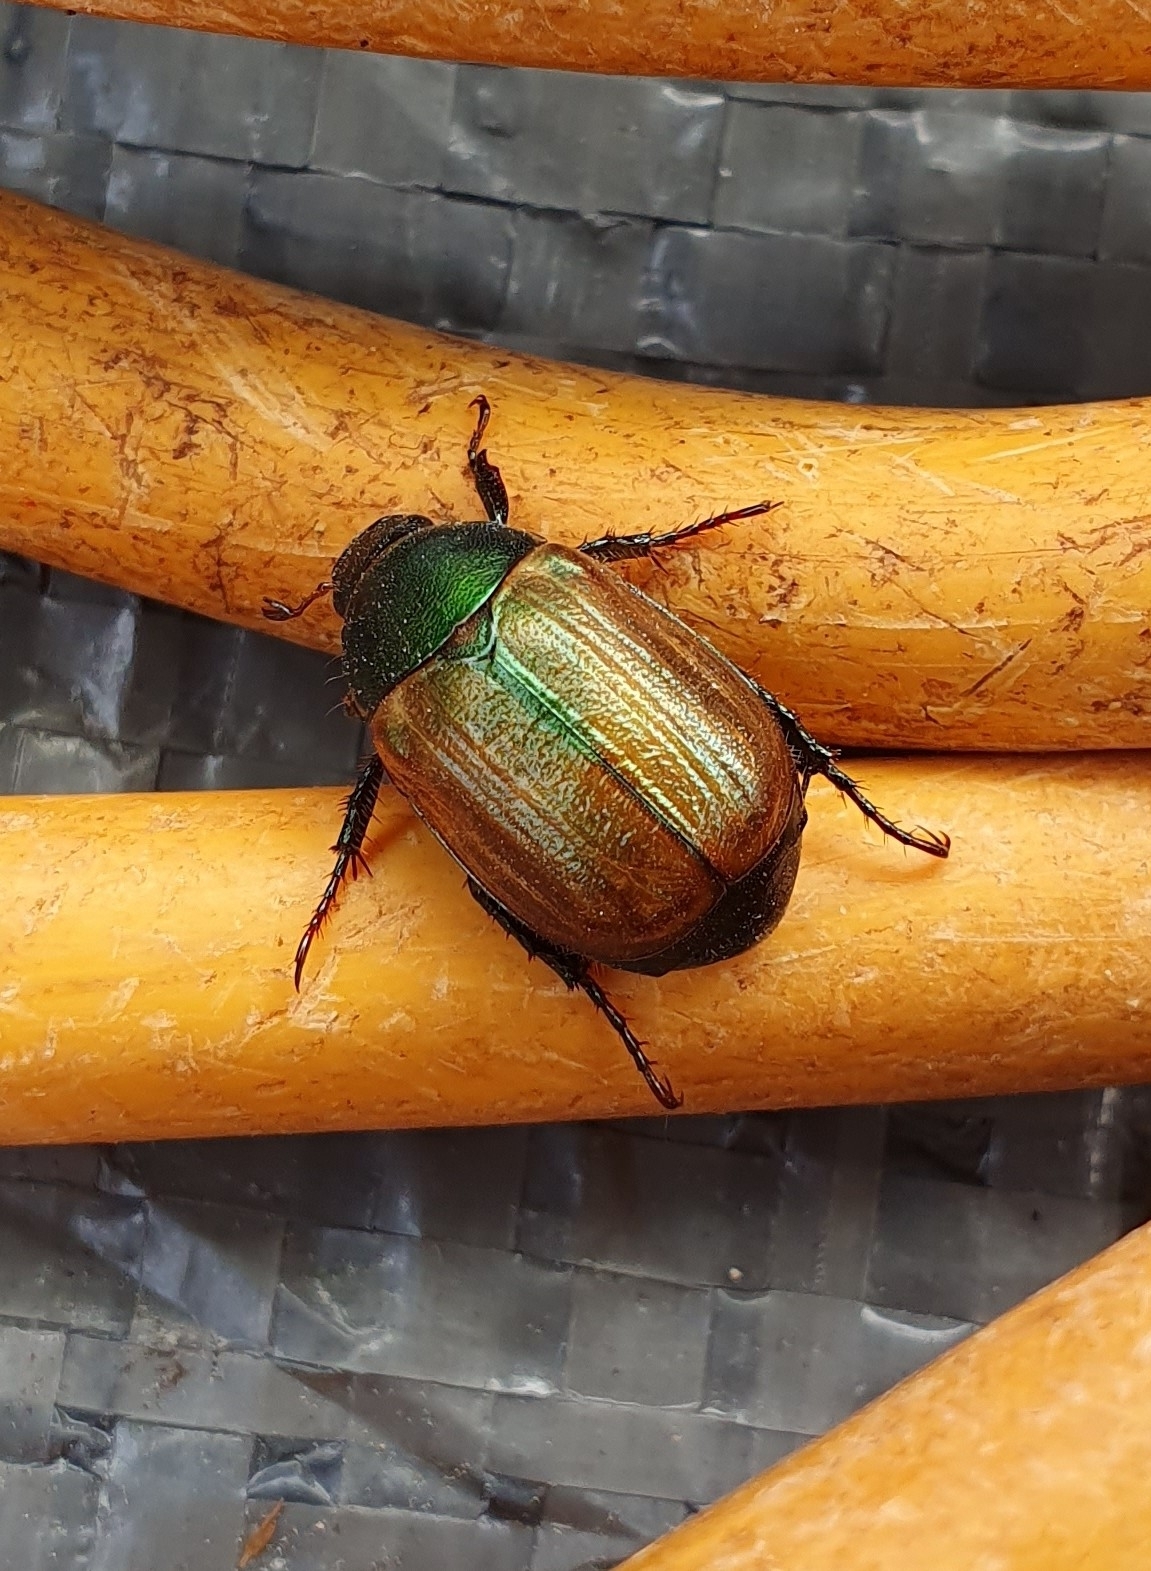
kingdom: Animalia
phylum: Arthropoda
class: Insecta
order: Coleoptera
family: Scarabaeidae
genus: Anomala
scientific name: Anomala dubia
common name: Dune chafer
